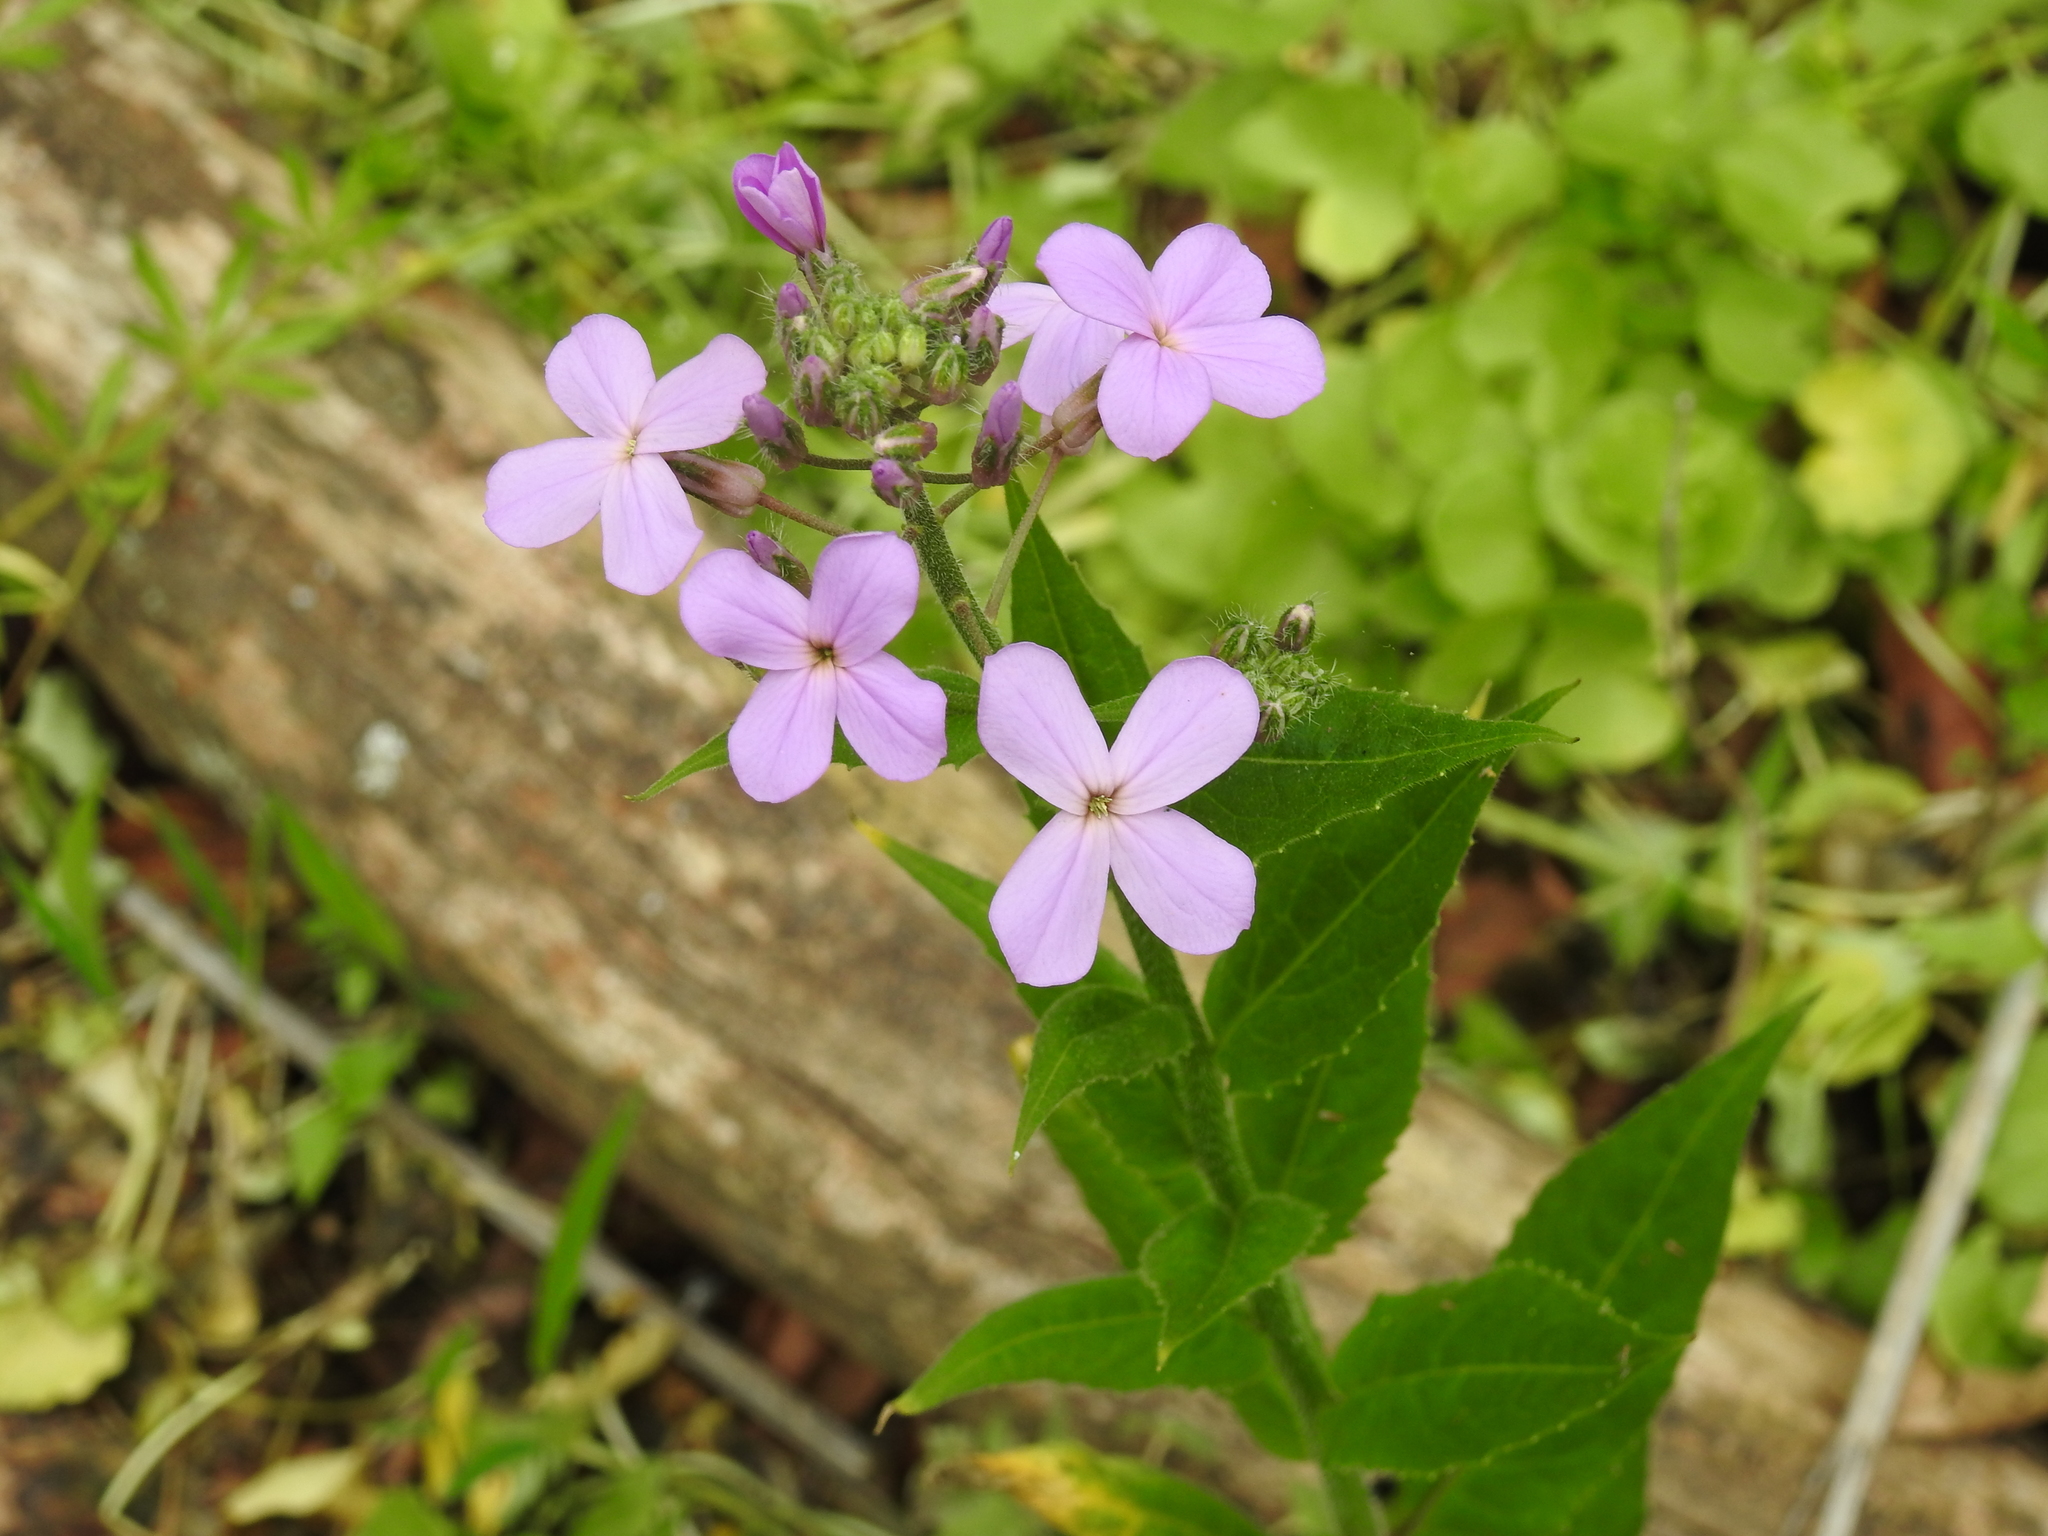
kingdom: Plantae
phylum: Tracheophyta
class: Magnoliopsida
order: Brassicales
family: Brassicaceae
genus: Hesperis
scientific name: Hesperis matronalis
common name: Dame's-violet
